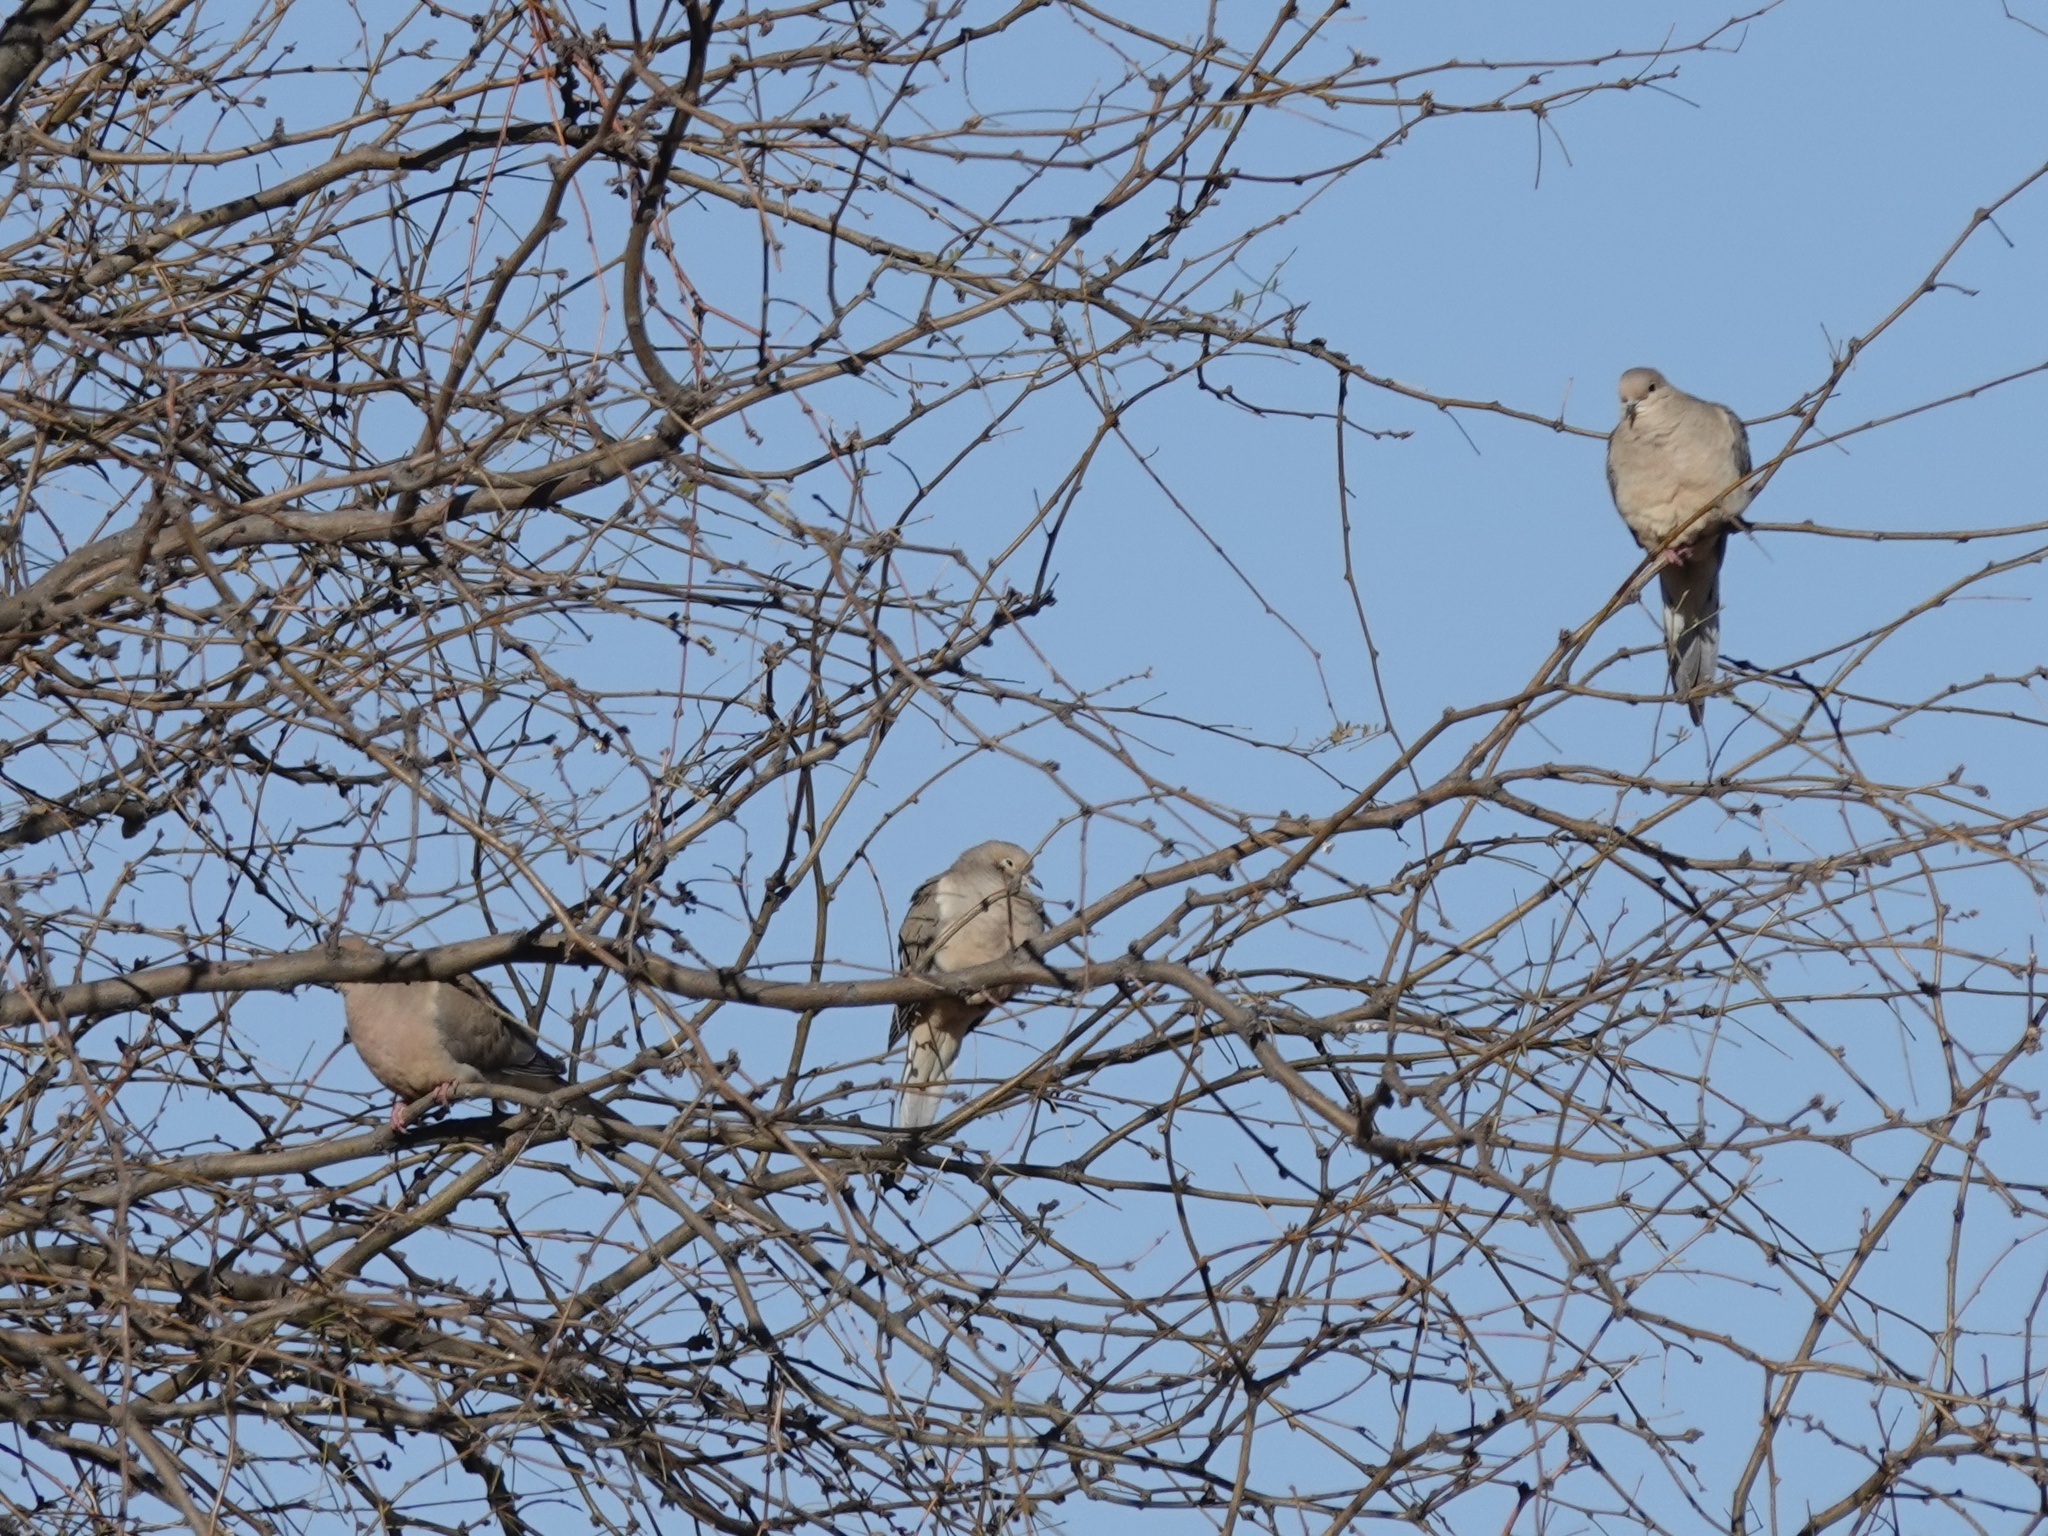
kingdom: Animalia
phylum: Chordata
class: Aves
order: Columbiformes
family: Columbidae
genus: Zenaida
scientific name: Zenaida macroura
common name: Mourning dove
